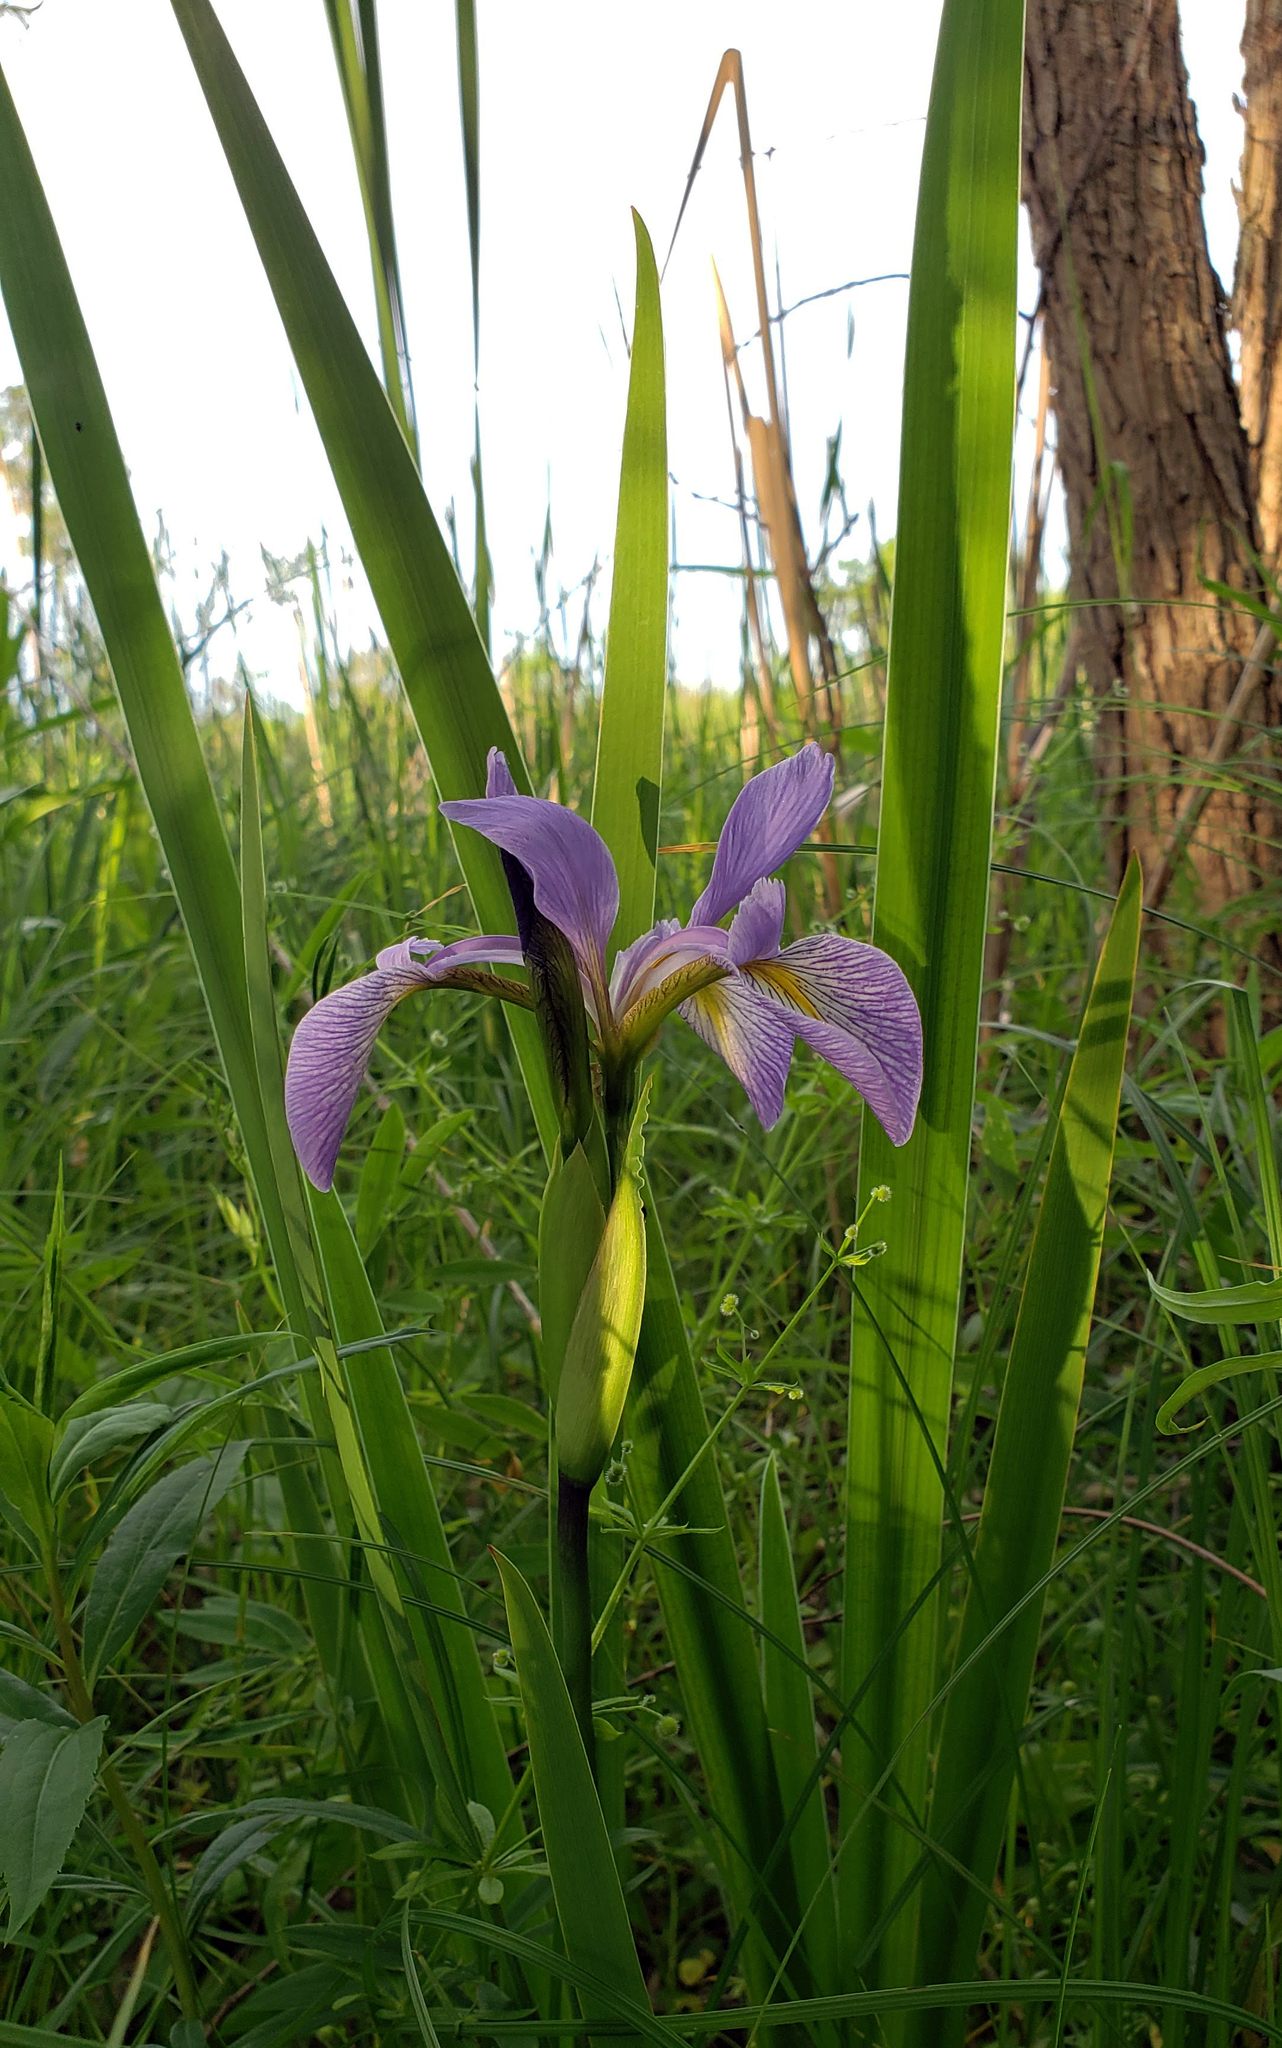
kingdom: Plantae
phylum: Tracheophyta
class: Liliopsida
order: Asparagales
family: Iridaceae
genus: Iris
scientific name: Iris virginica
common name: Southern blue flag
